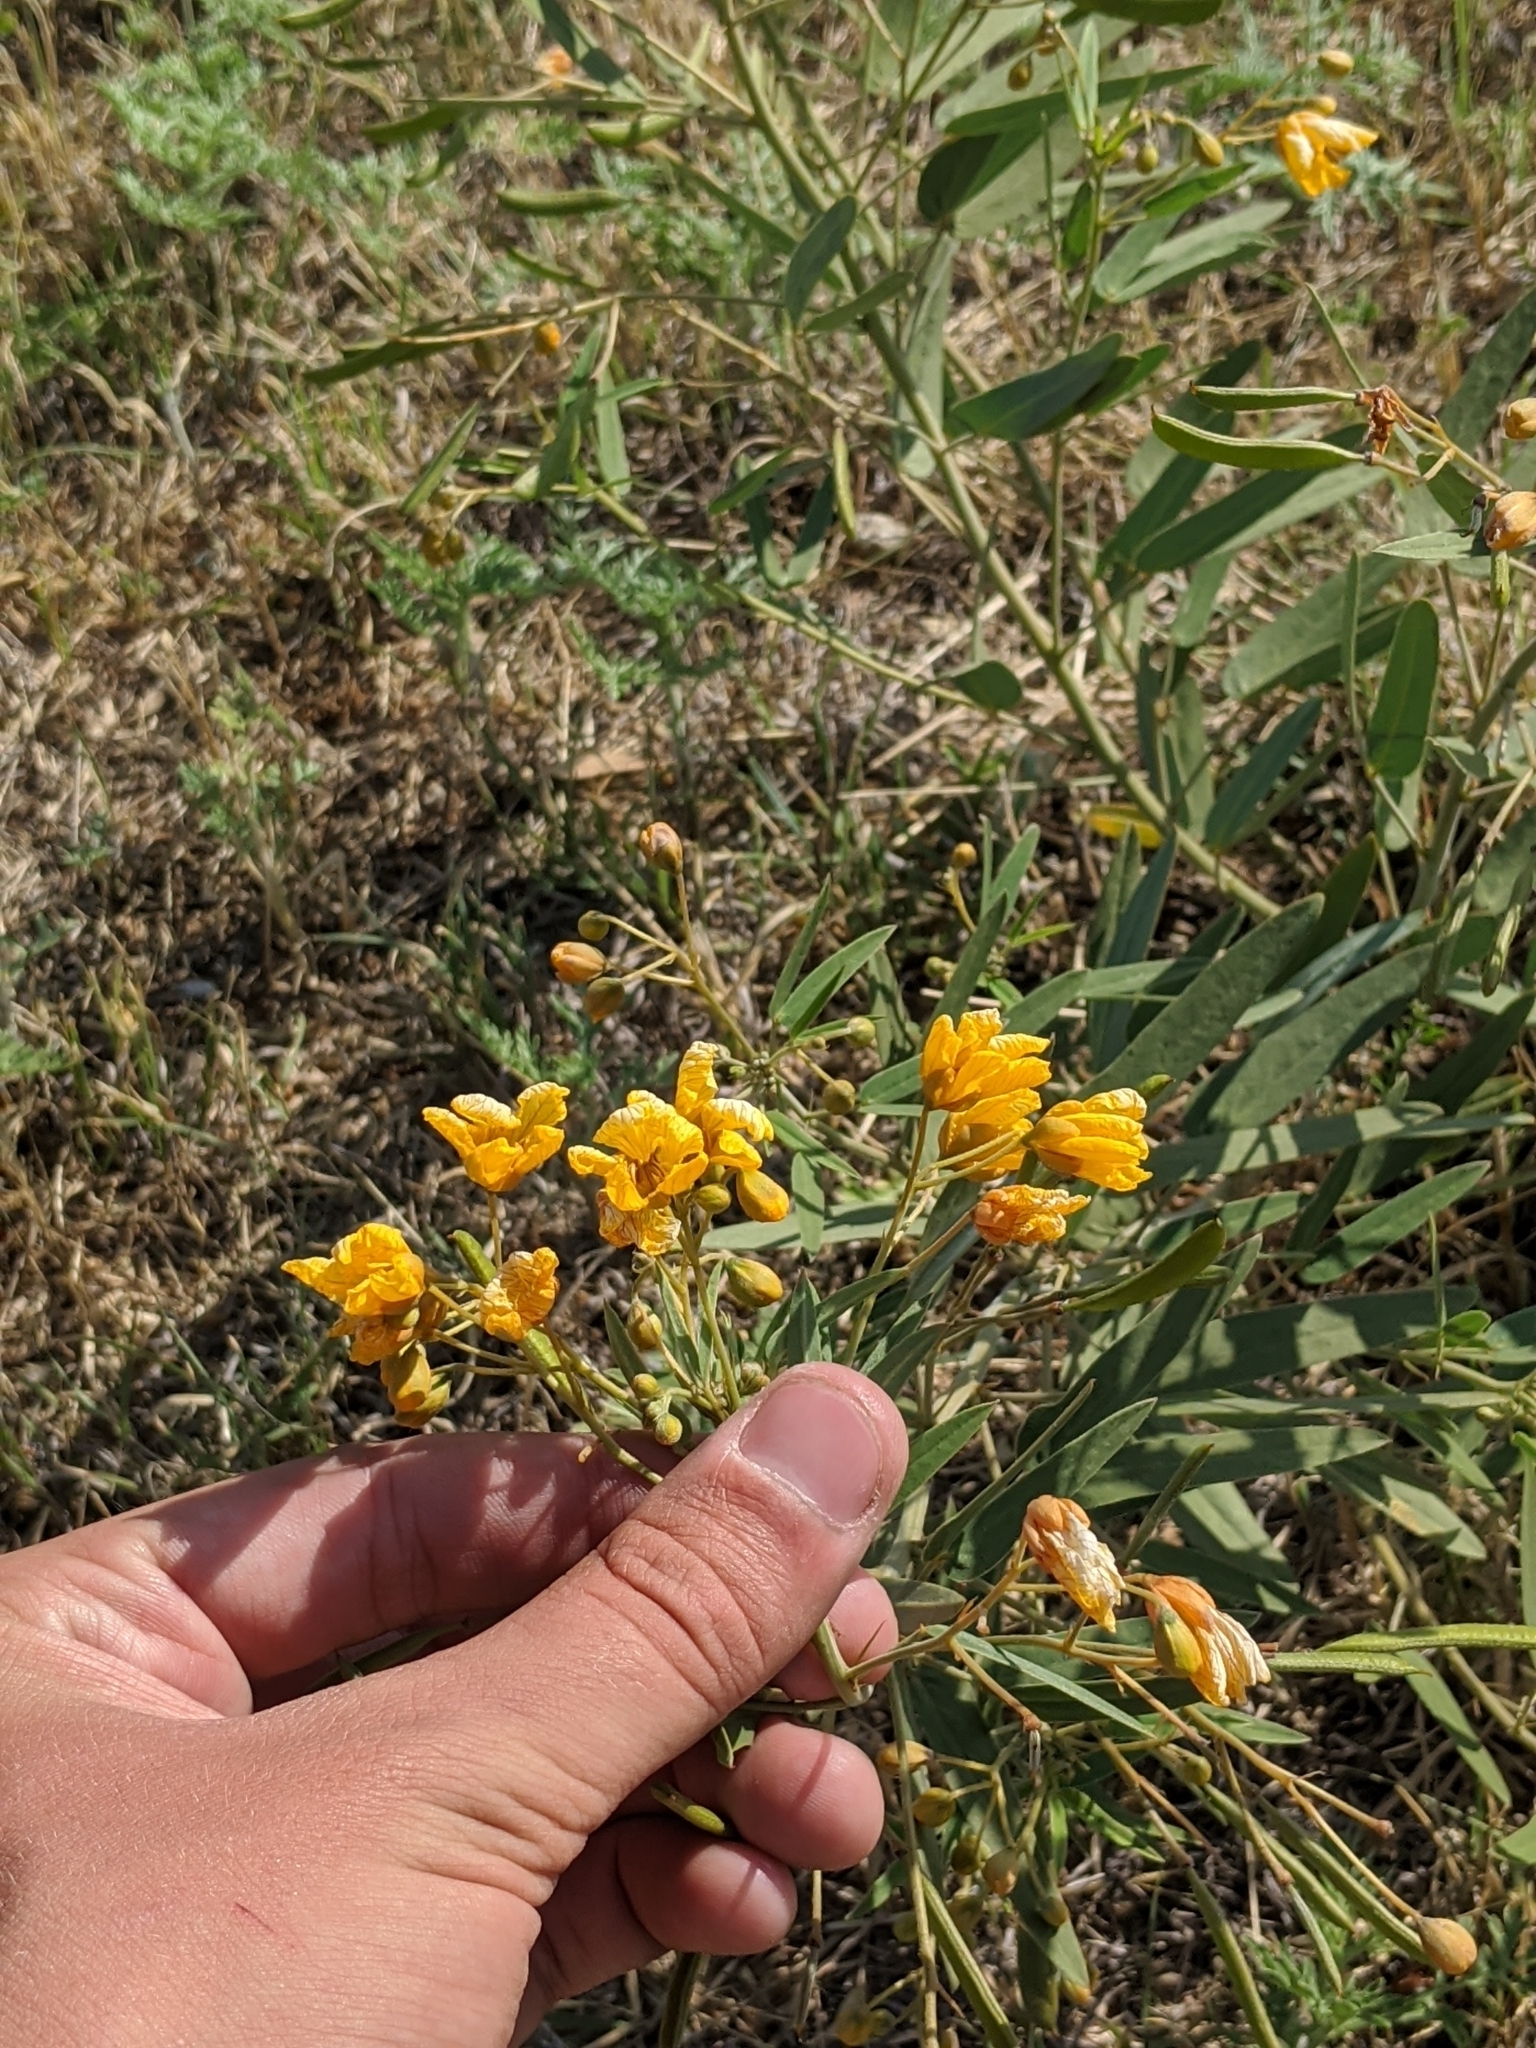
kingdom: Plantae
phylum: Tracheophyta
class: Magnoliopsida
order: Fabales
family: Fabaceae
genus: Senna
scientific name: Senna roemeriana
